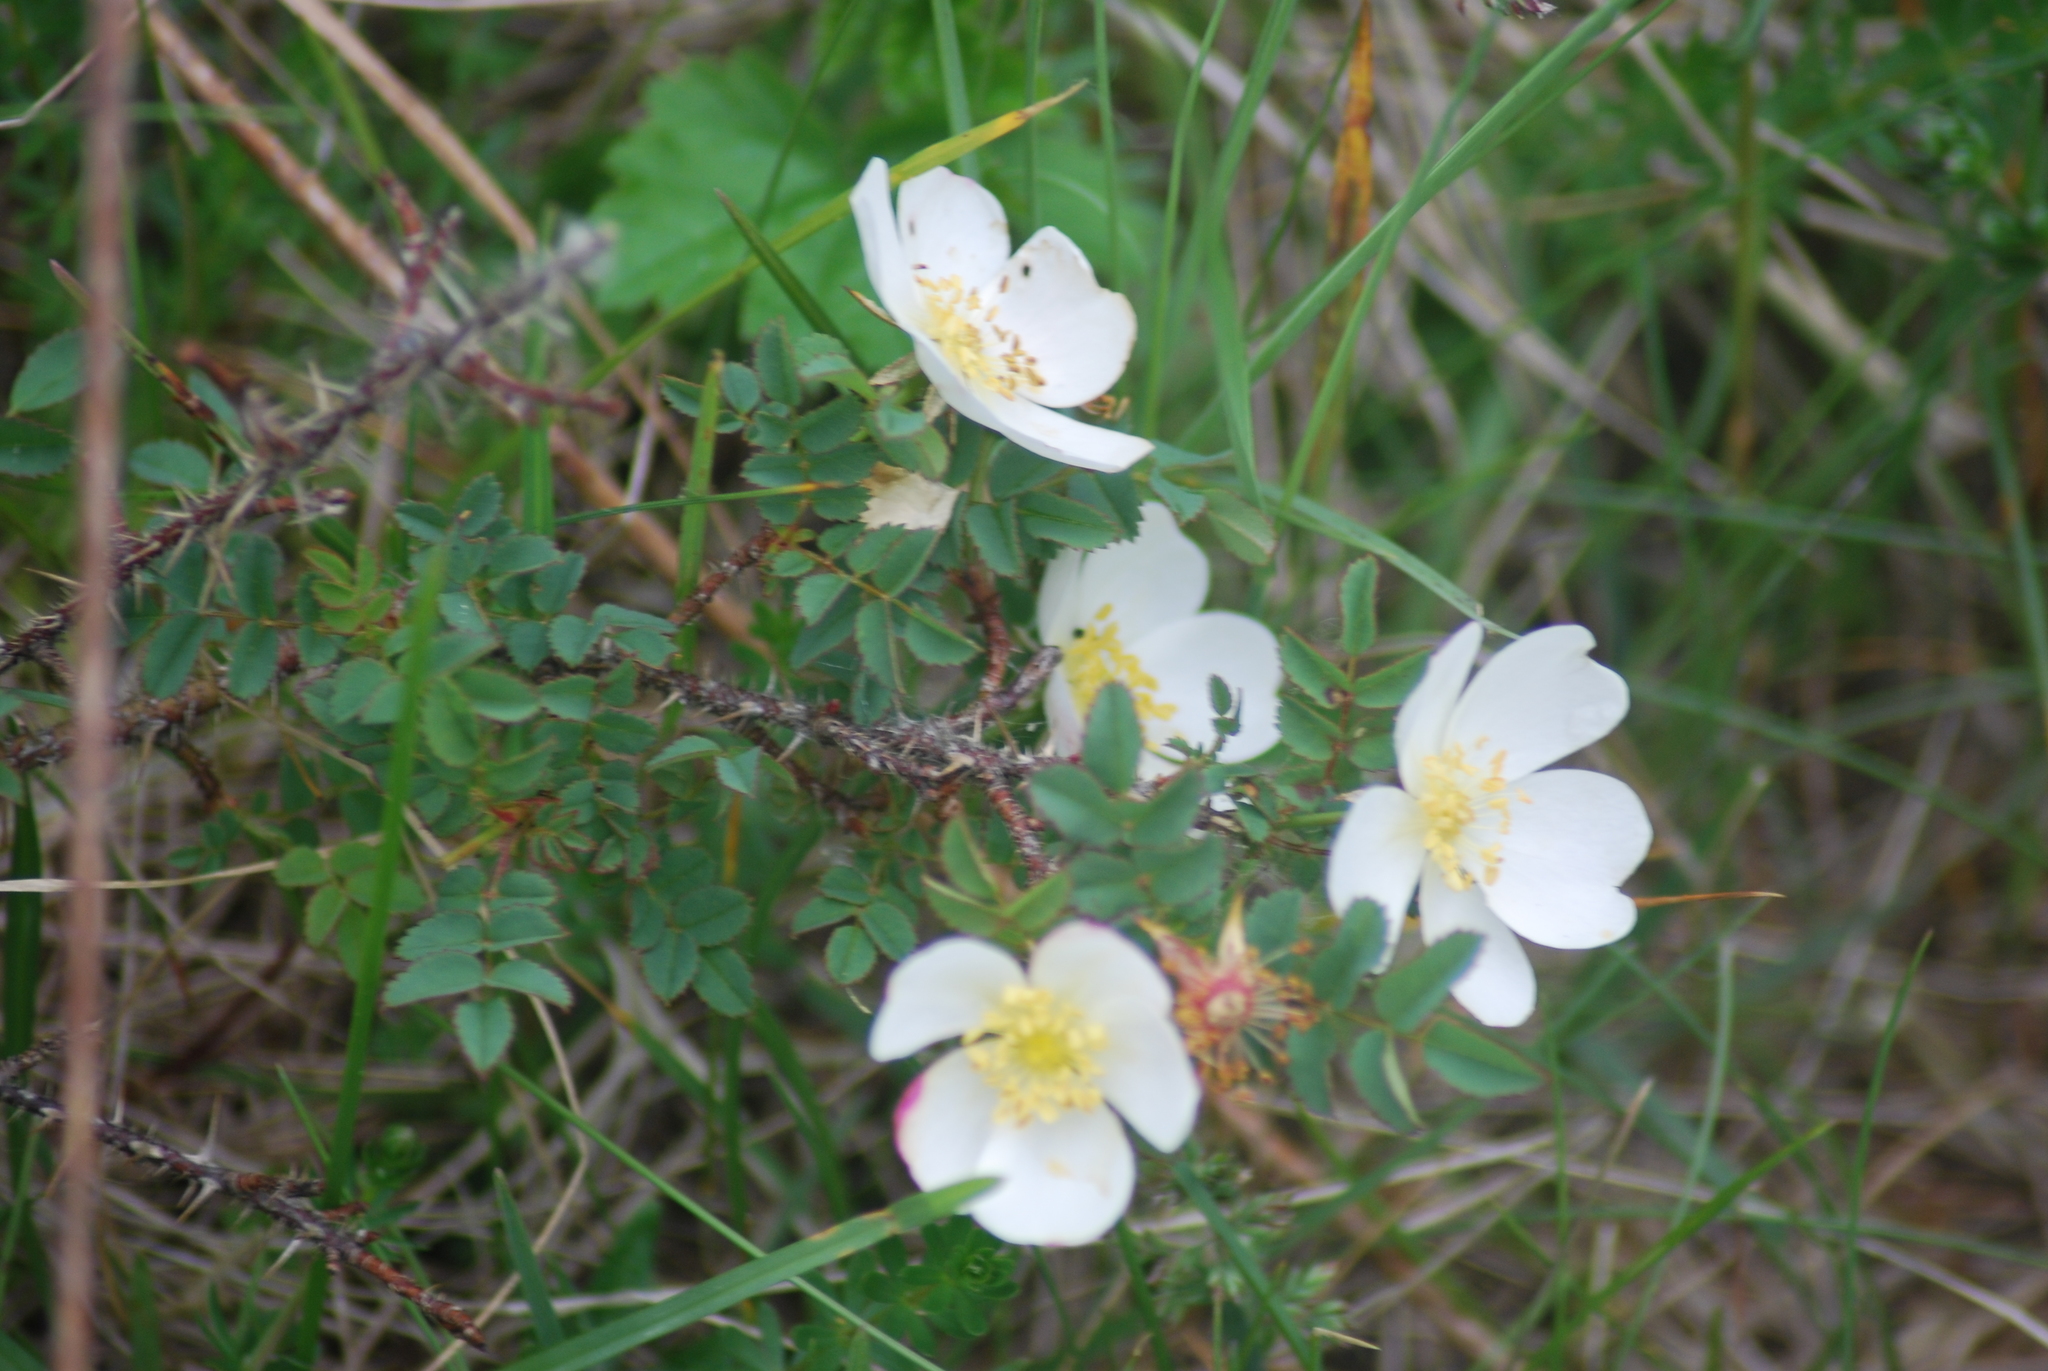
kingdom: Plantae
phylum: Tracheophyta
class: Magnoliopsida
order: Rosales
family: Rosaceae
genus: Rosa
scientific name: Rosa spinosissima
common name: Burnet rose
